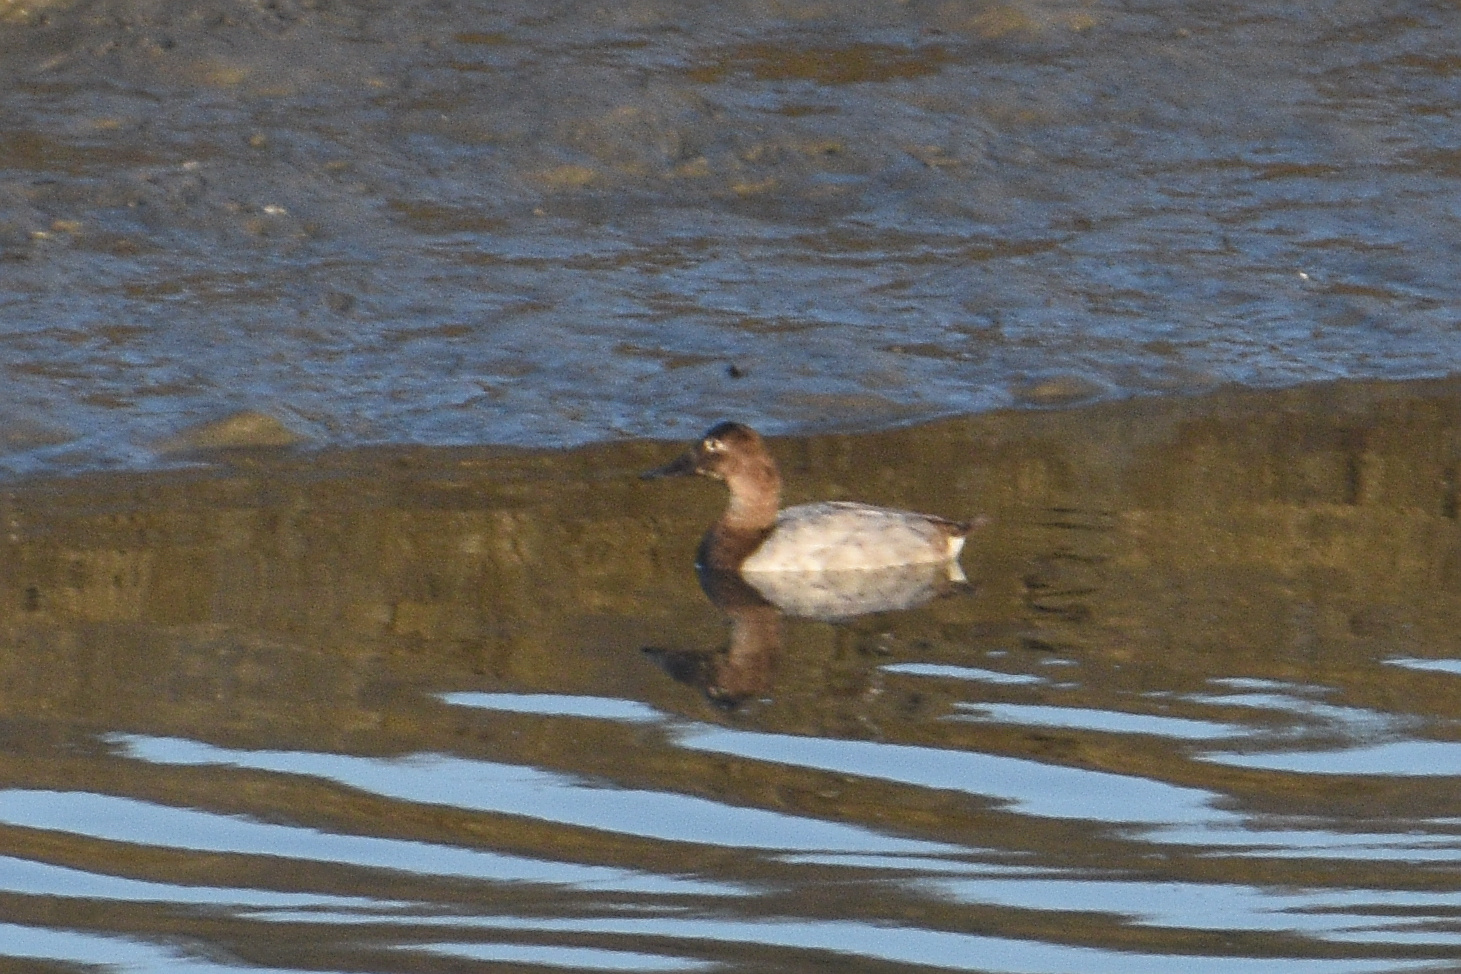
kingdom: Animalia
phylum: Chordata
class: Aves
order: Anseriformes
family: Anatidae
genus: Aythya
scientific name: Aythya valisineria
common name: Canvasback
